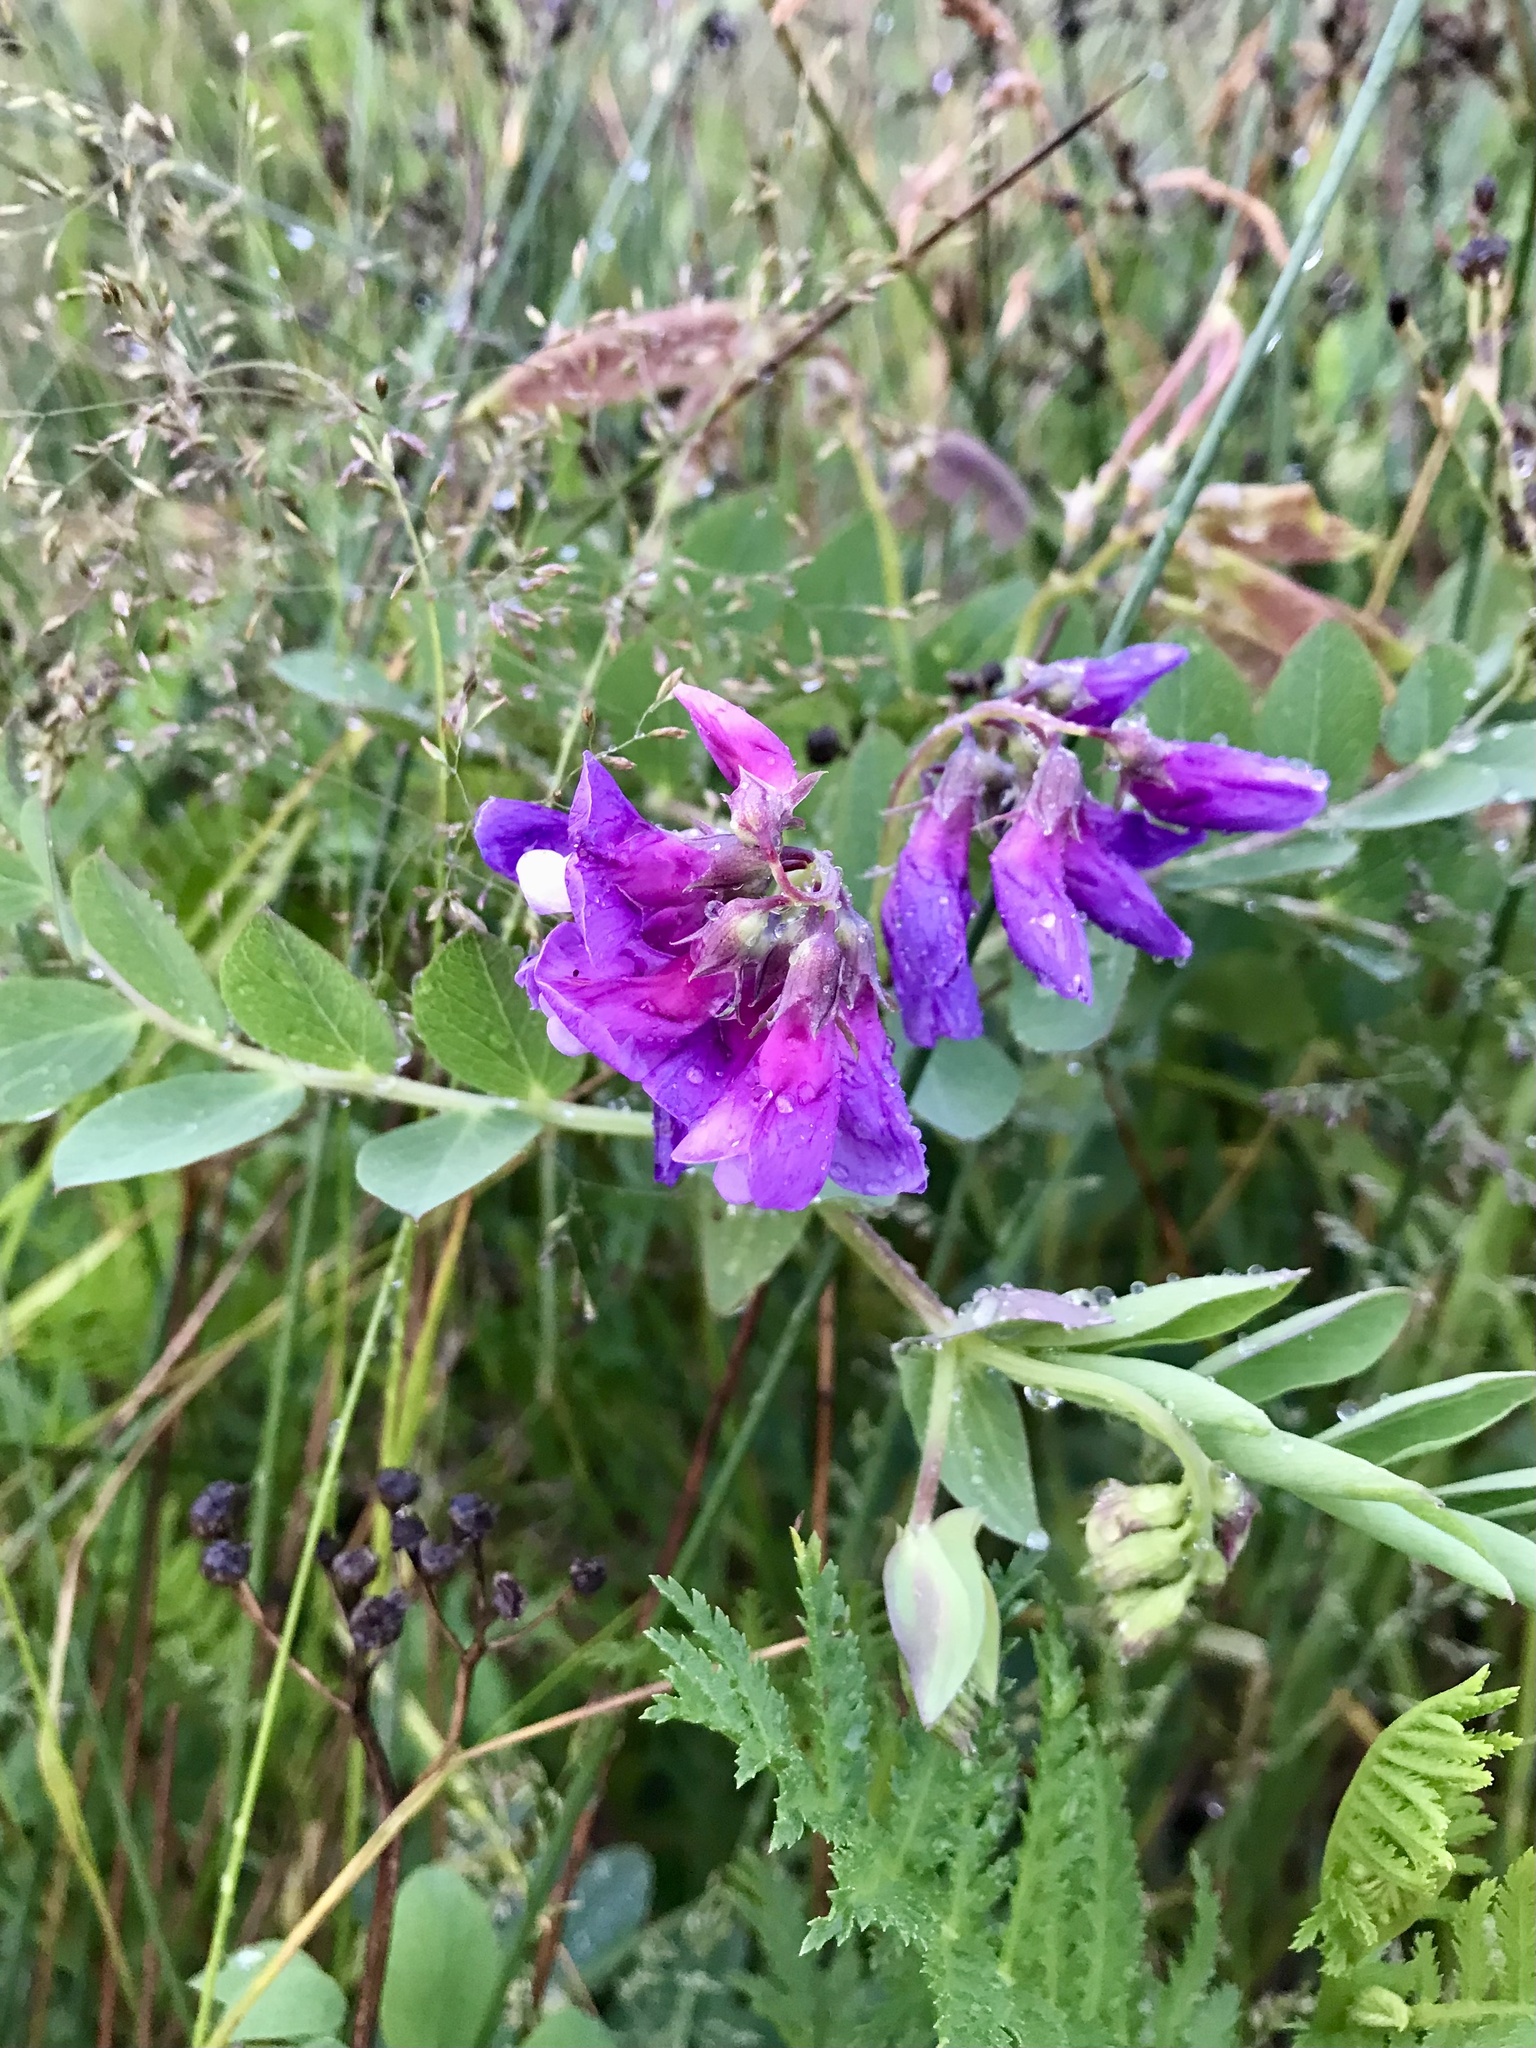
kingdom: Plantae
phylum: Tracheophyta
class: Magnoliopsida
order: Fabales
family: Fabaceae
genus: Lathyrus
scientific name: Lathyrus japonicus
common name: Sea pea
